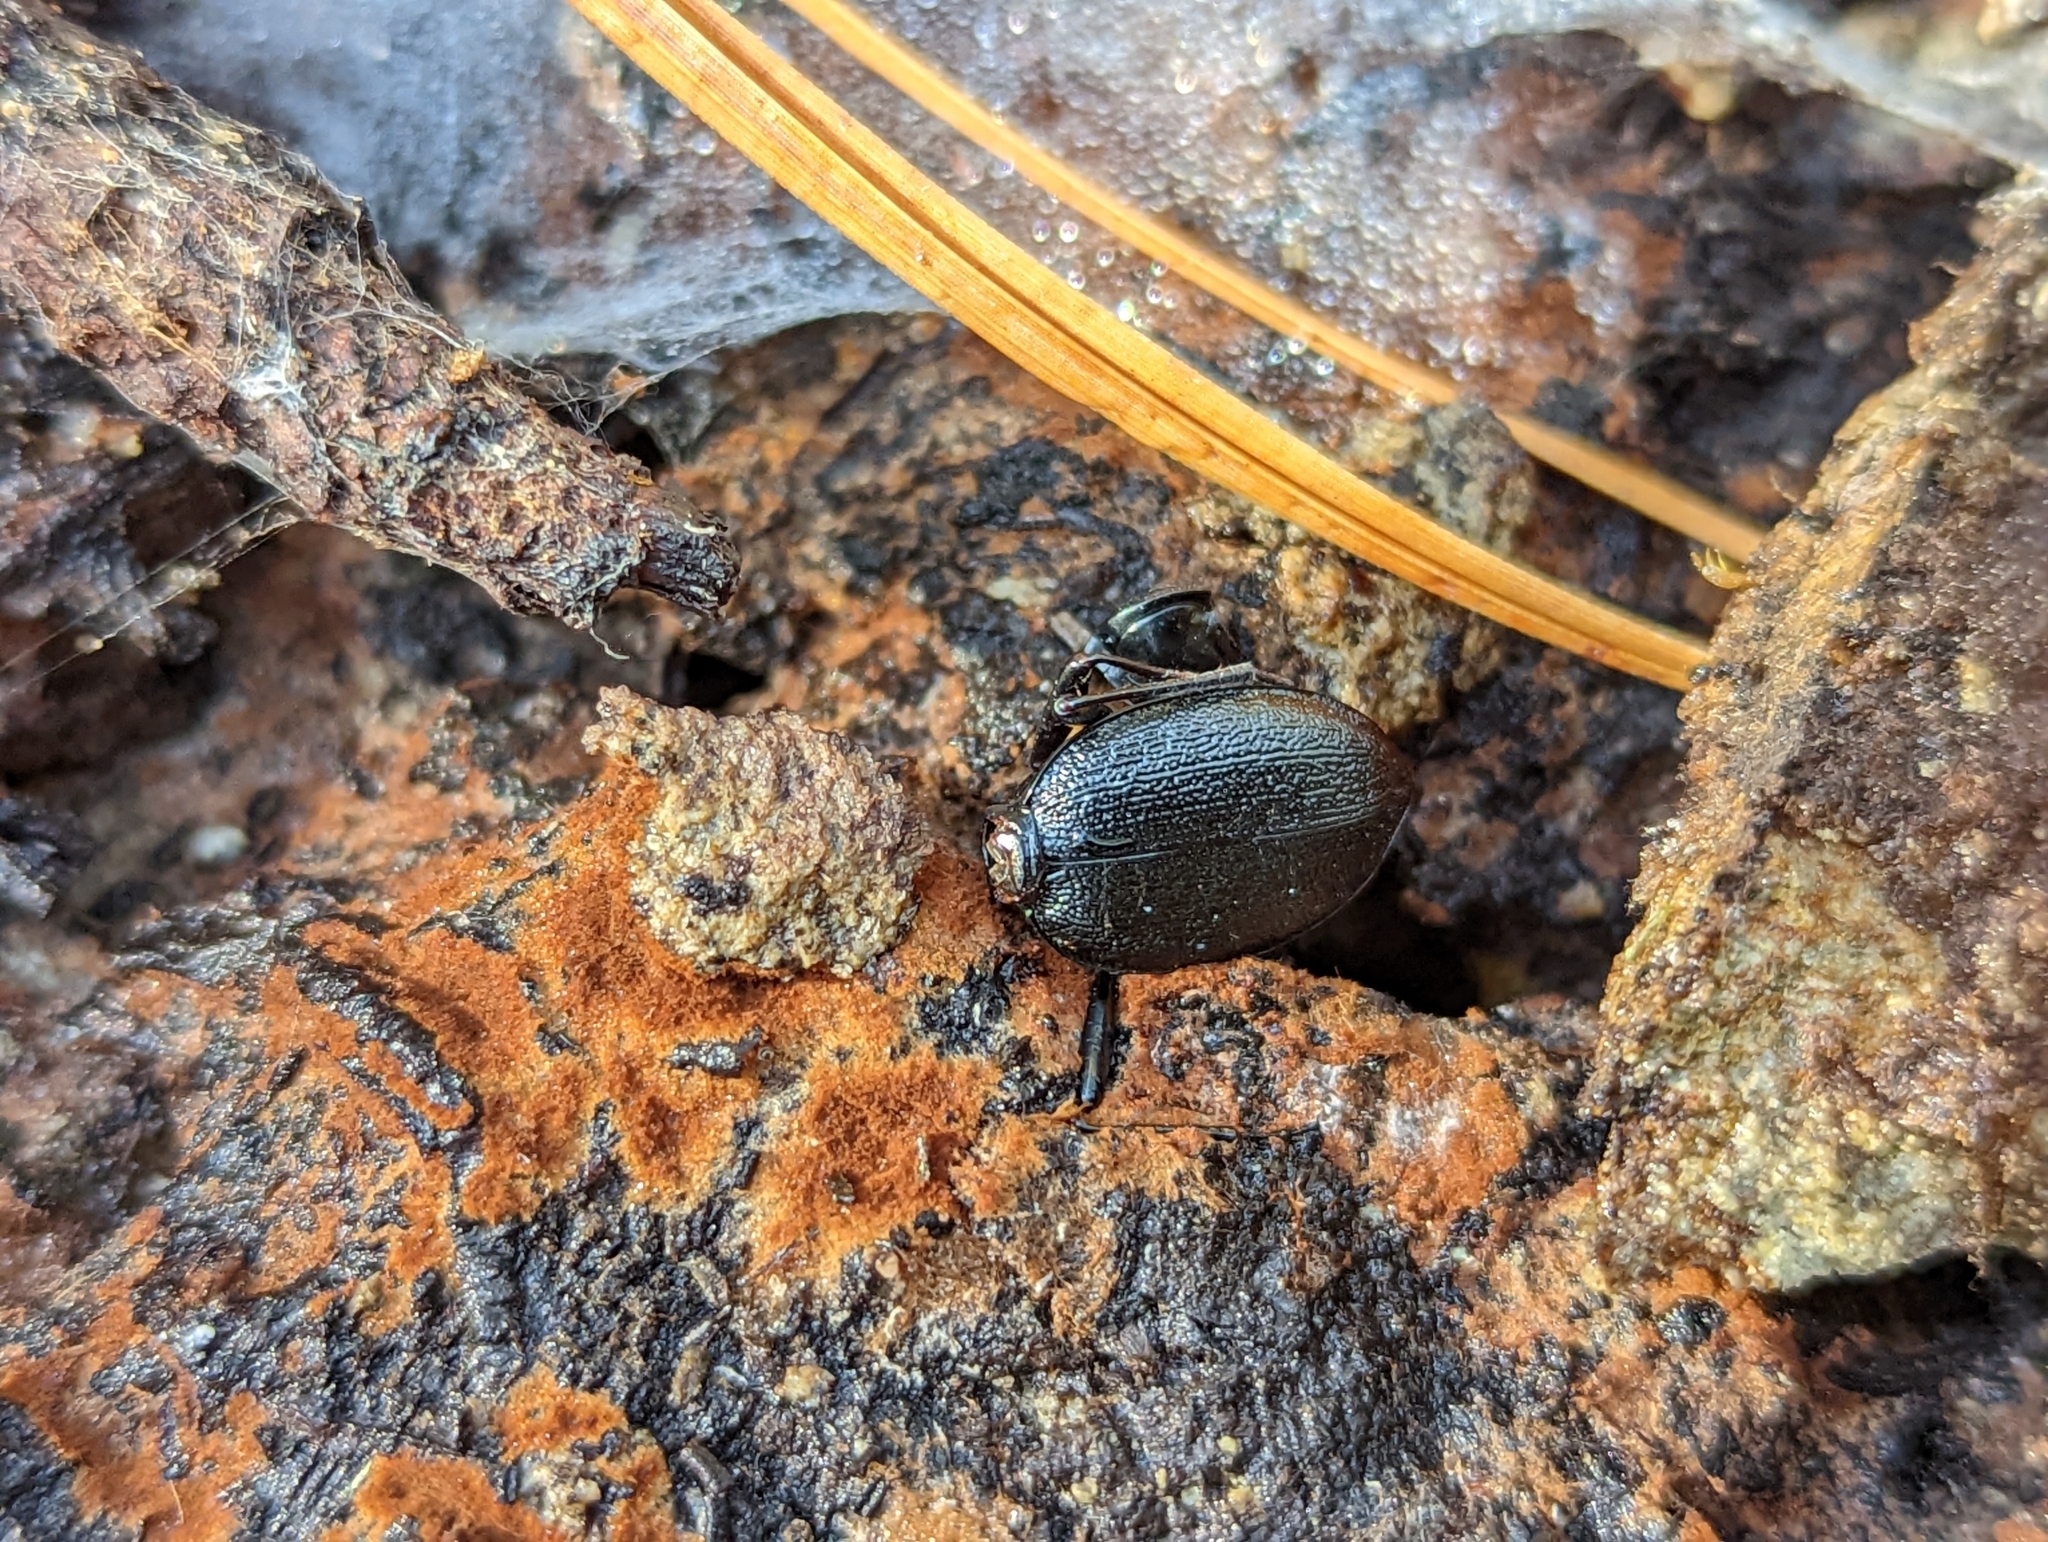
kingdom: Animalia
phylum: Arthropoda
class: Insecta
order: Coleoptera
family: Carabidae
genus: Scaphinotus
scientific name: Scaphinotus
